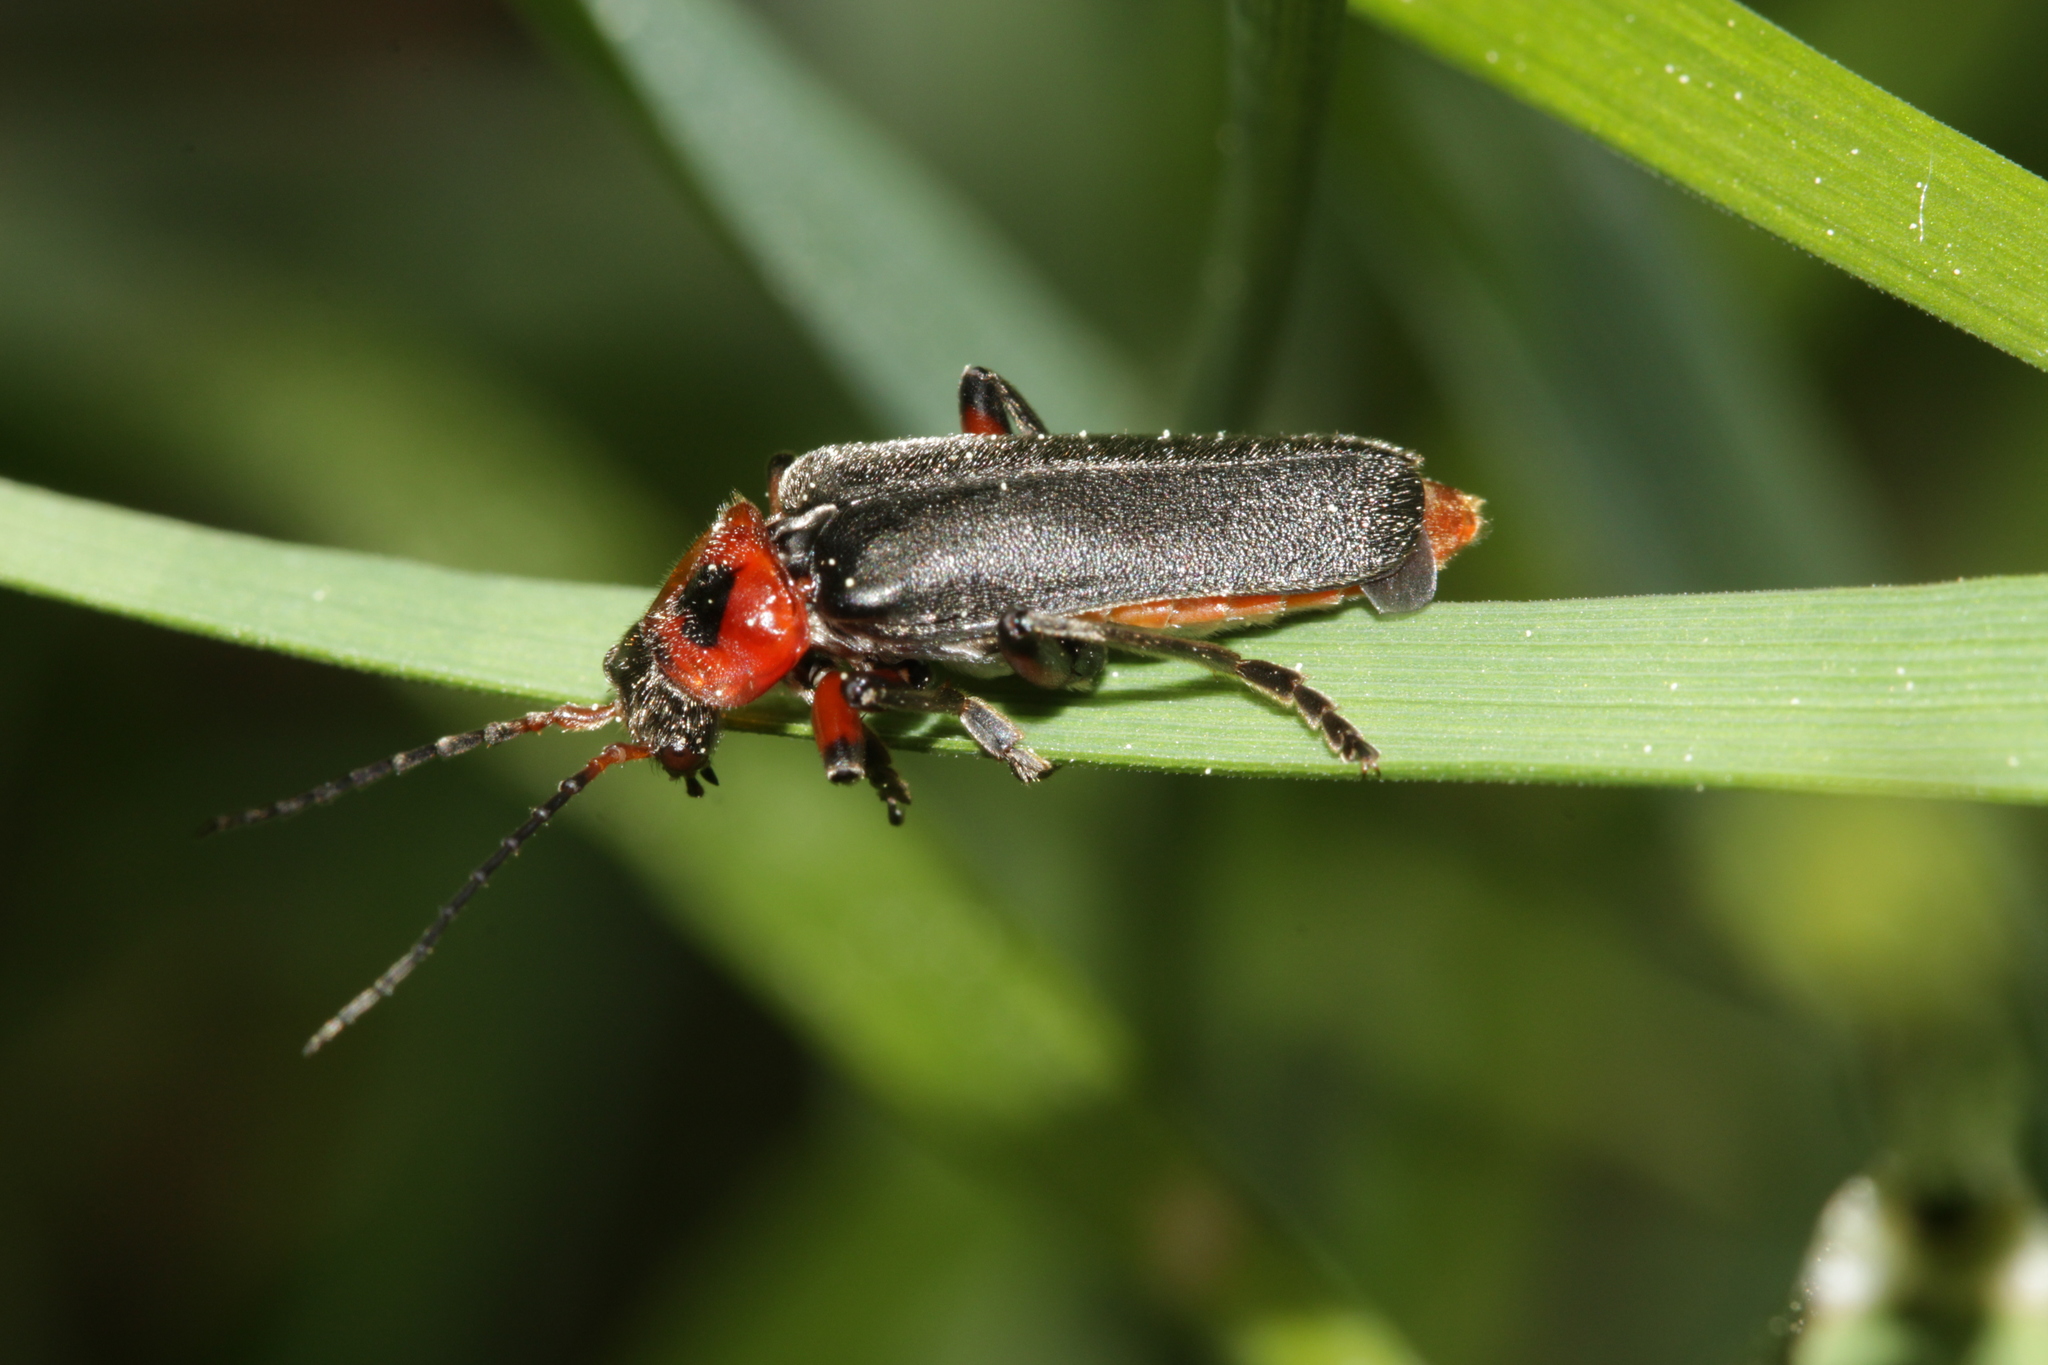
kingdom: Animalia
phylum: Arthropoda
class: Insecta
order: Coleoptera
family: Cantharidae
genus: Cantharis
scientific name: Cantharis rustica
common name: Soldier beetle
